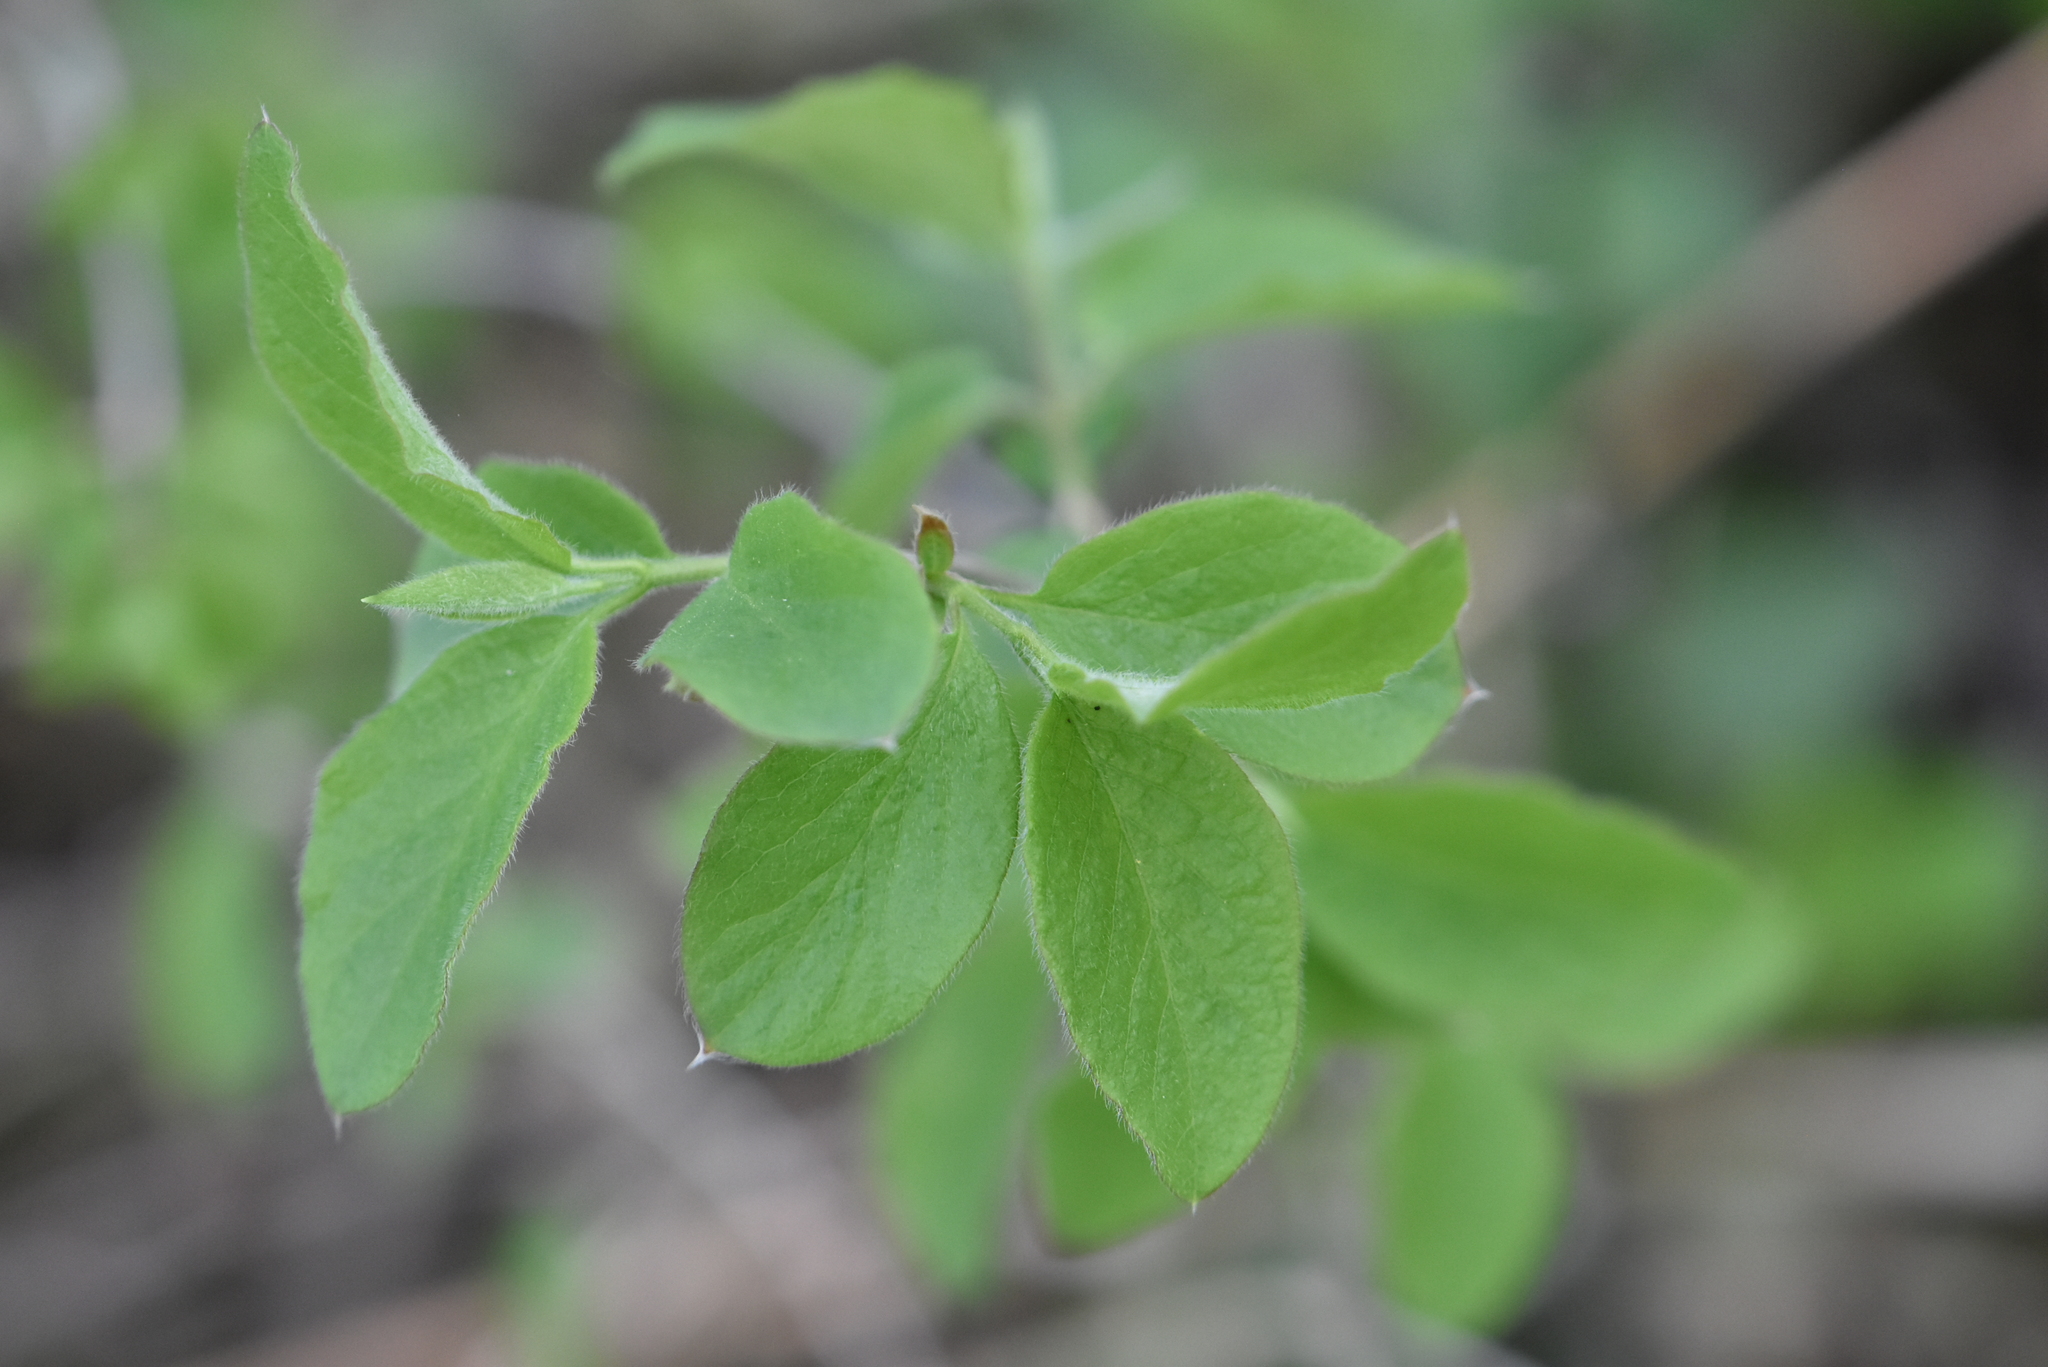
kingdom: Plantae
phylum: Tracheophyta
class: Magnoliopsida
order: Dipsacales
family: Caprifoliaceae
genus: Lonicera
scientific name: Lonicera xylosteum
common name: Fly honeysuckle
